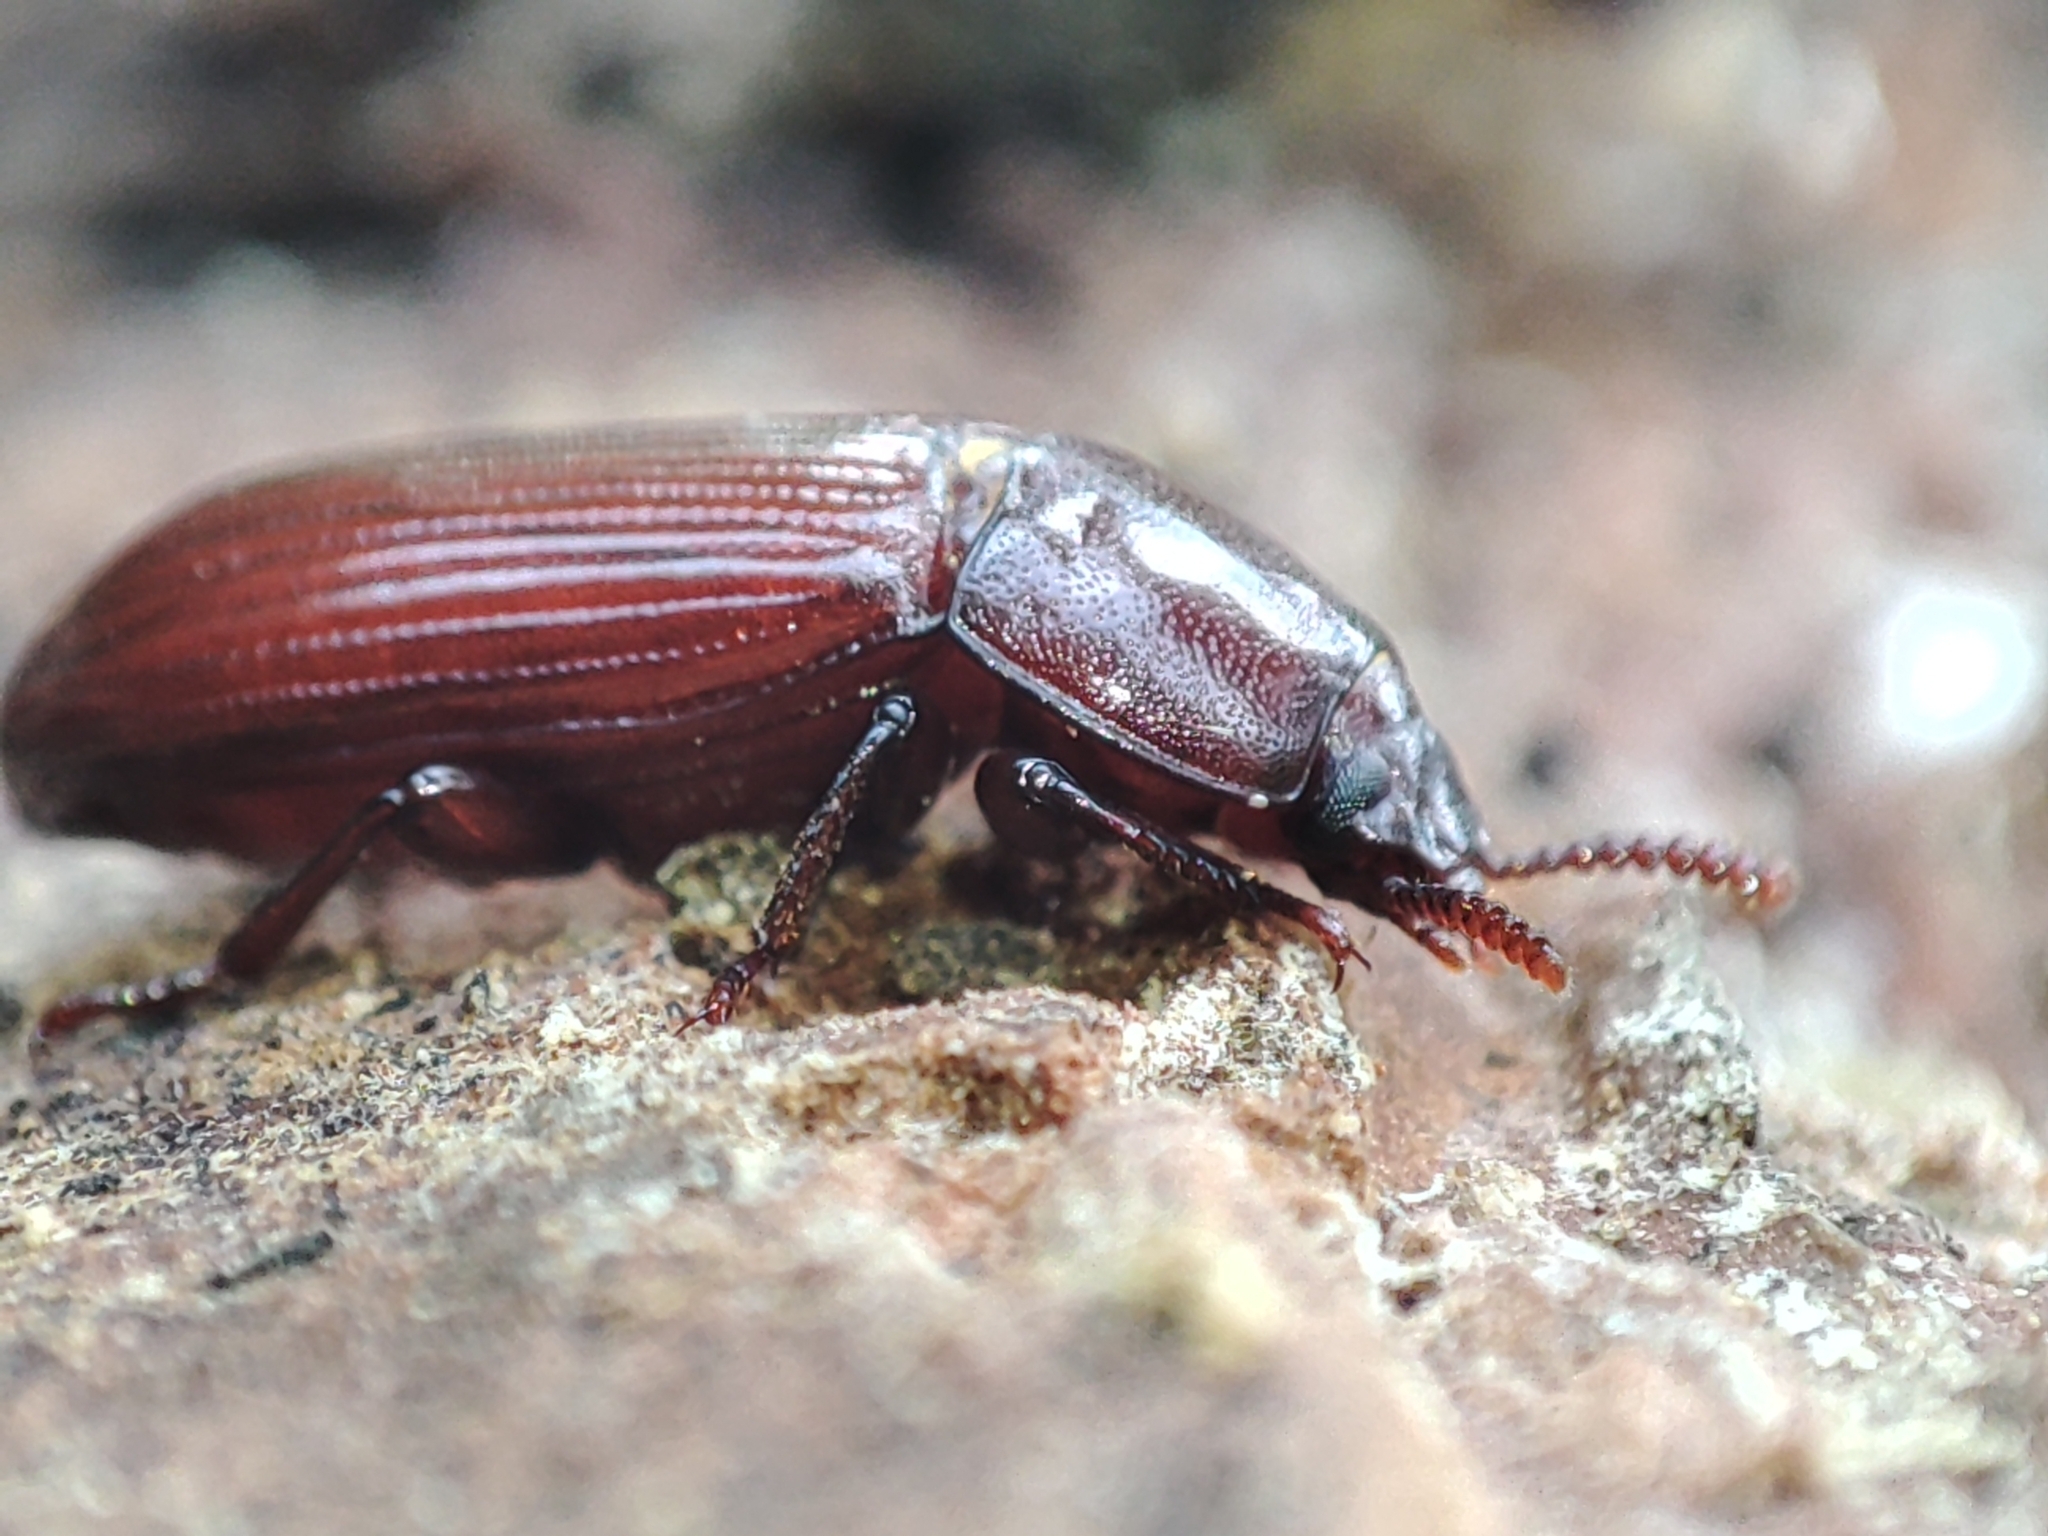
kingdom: Animalia
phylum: Arthropoda
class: Insecta
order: Coleoptera
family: Tenebrionidae
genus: Uloma
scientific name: Uloma culinaris
